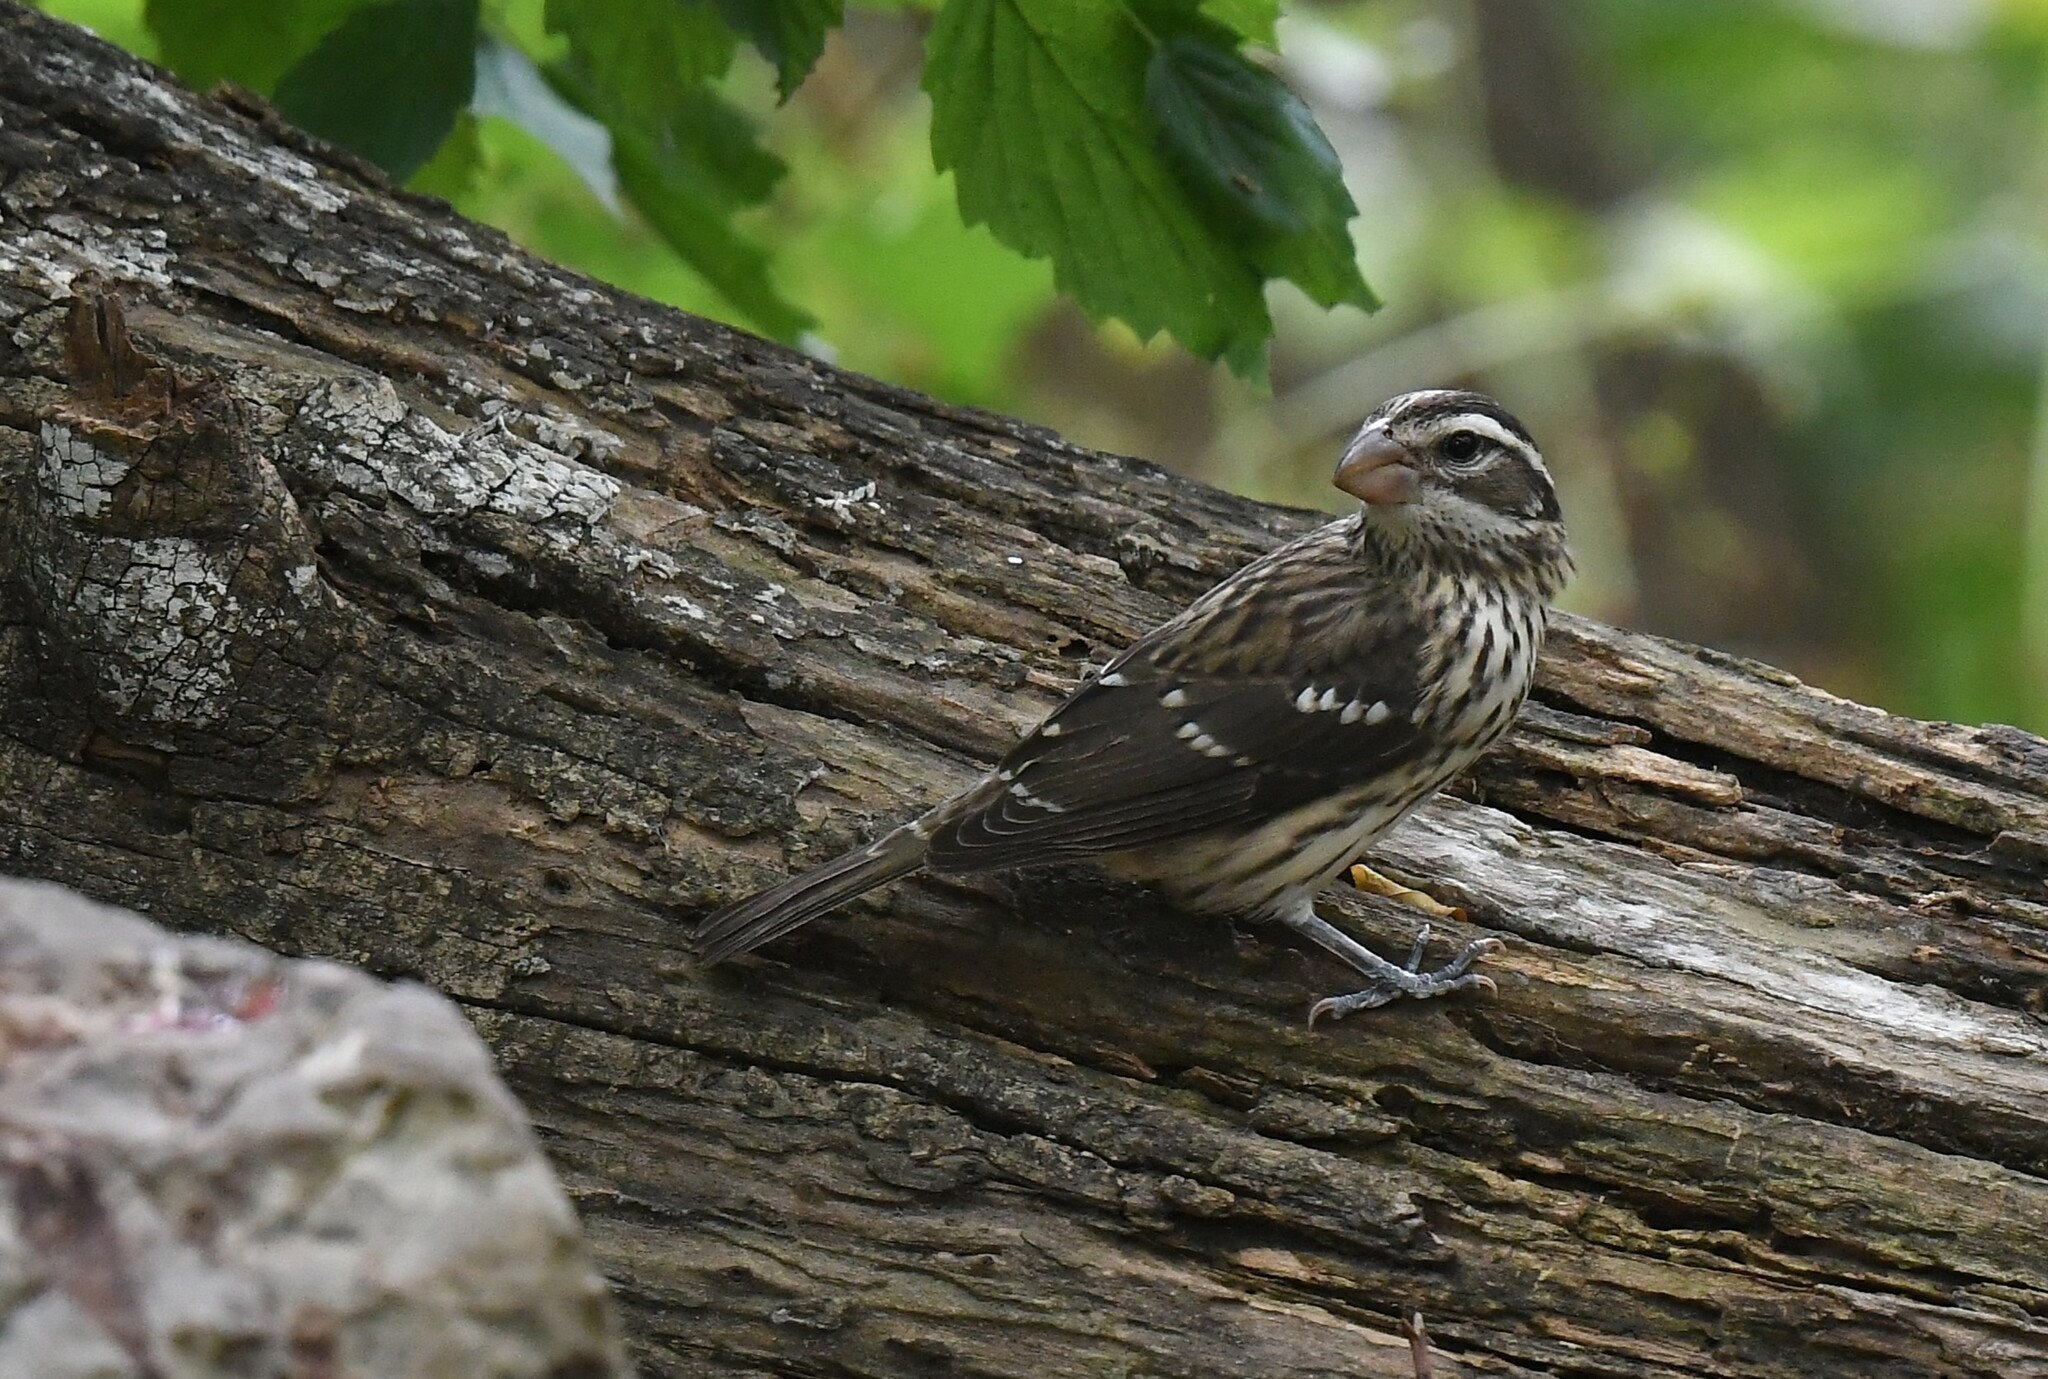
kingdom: Animalia
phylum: Chordata
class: Aves
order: Passeriformes
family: Cardinalidae
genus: Pheucticus
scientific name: Pheucticus ludovicianus
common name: Rose-breasted grosbeak
